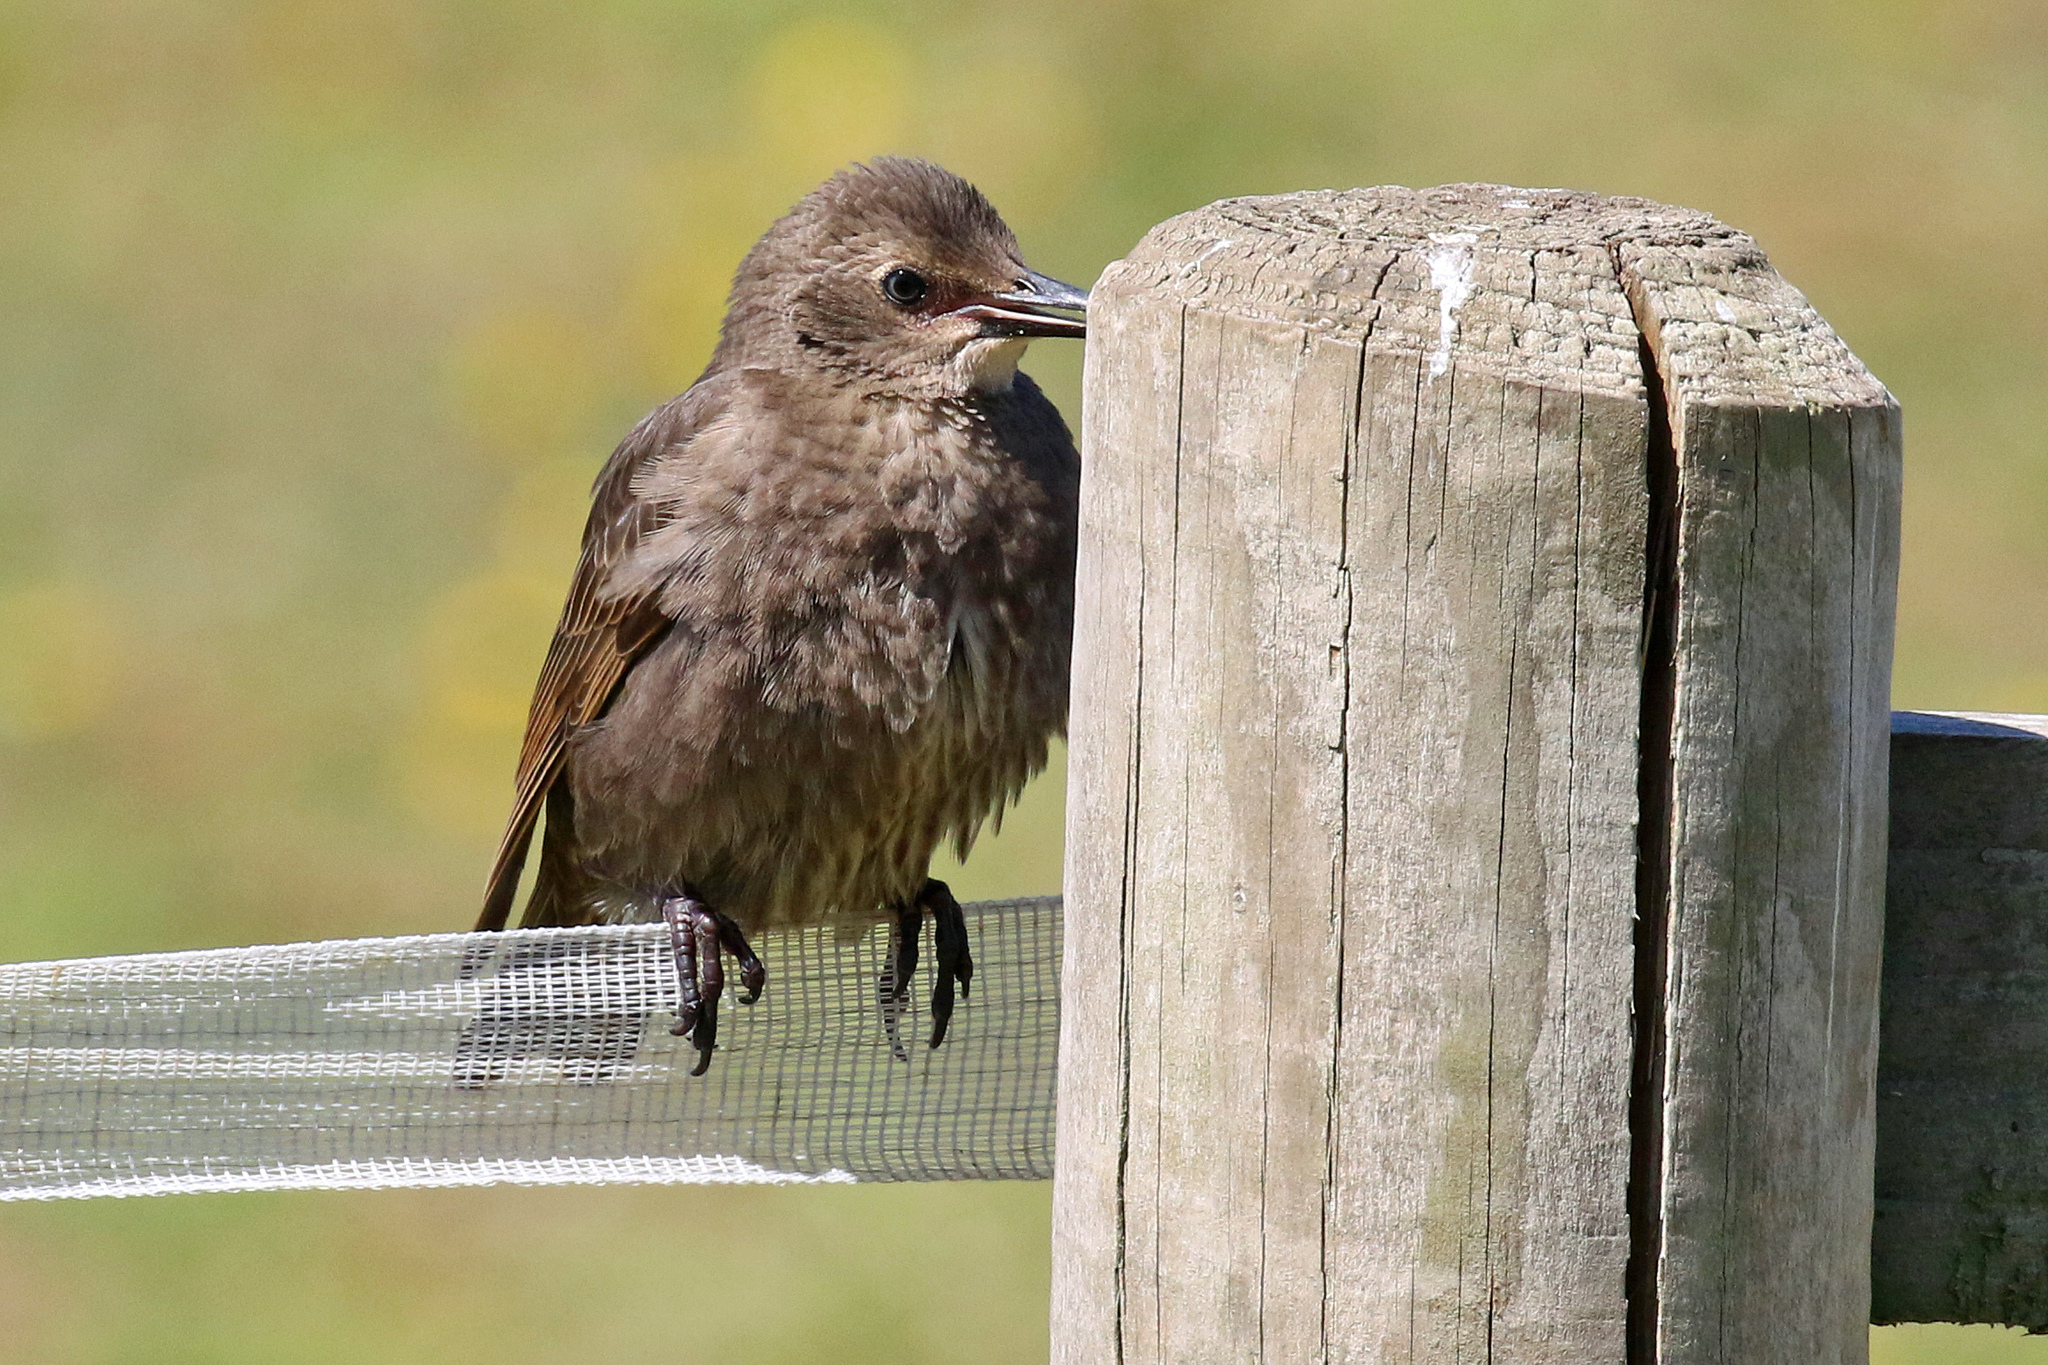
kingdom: Animalia
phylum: Chordata
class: Aves
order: Passeriformes
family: Sturnidae
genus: Sturnus
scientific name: Sturnus vulgaris
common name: Common starling
